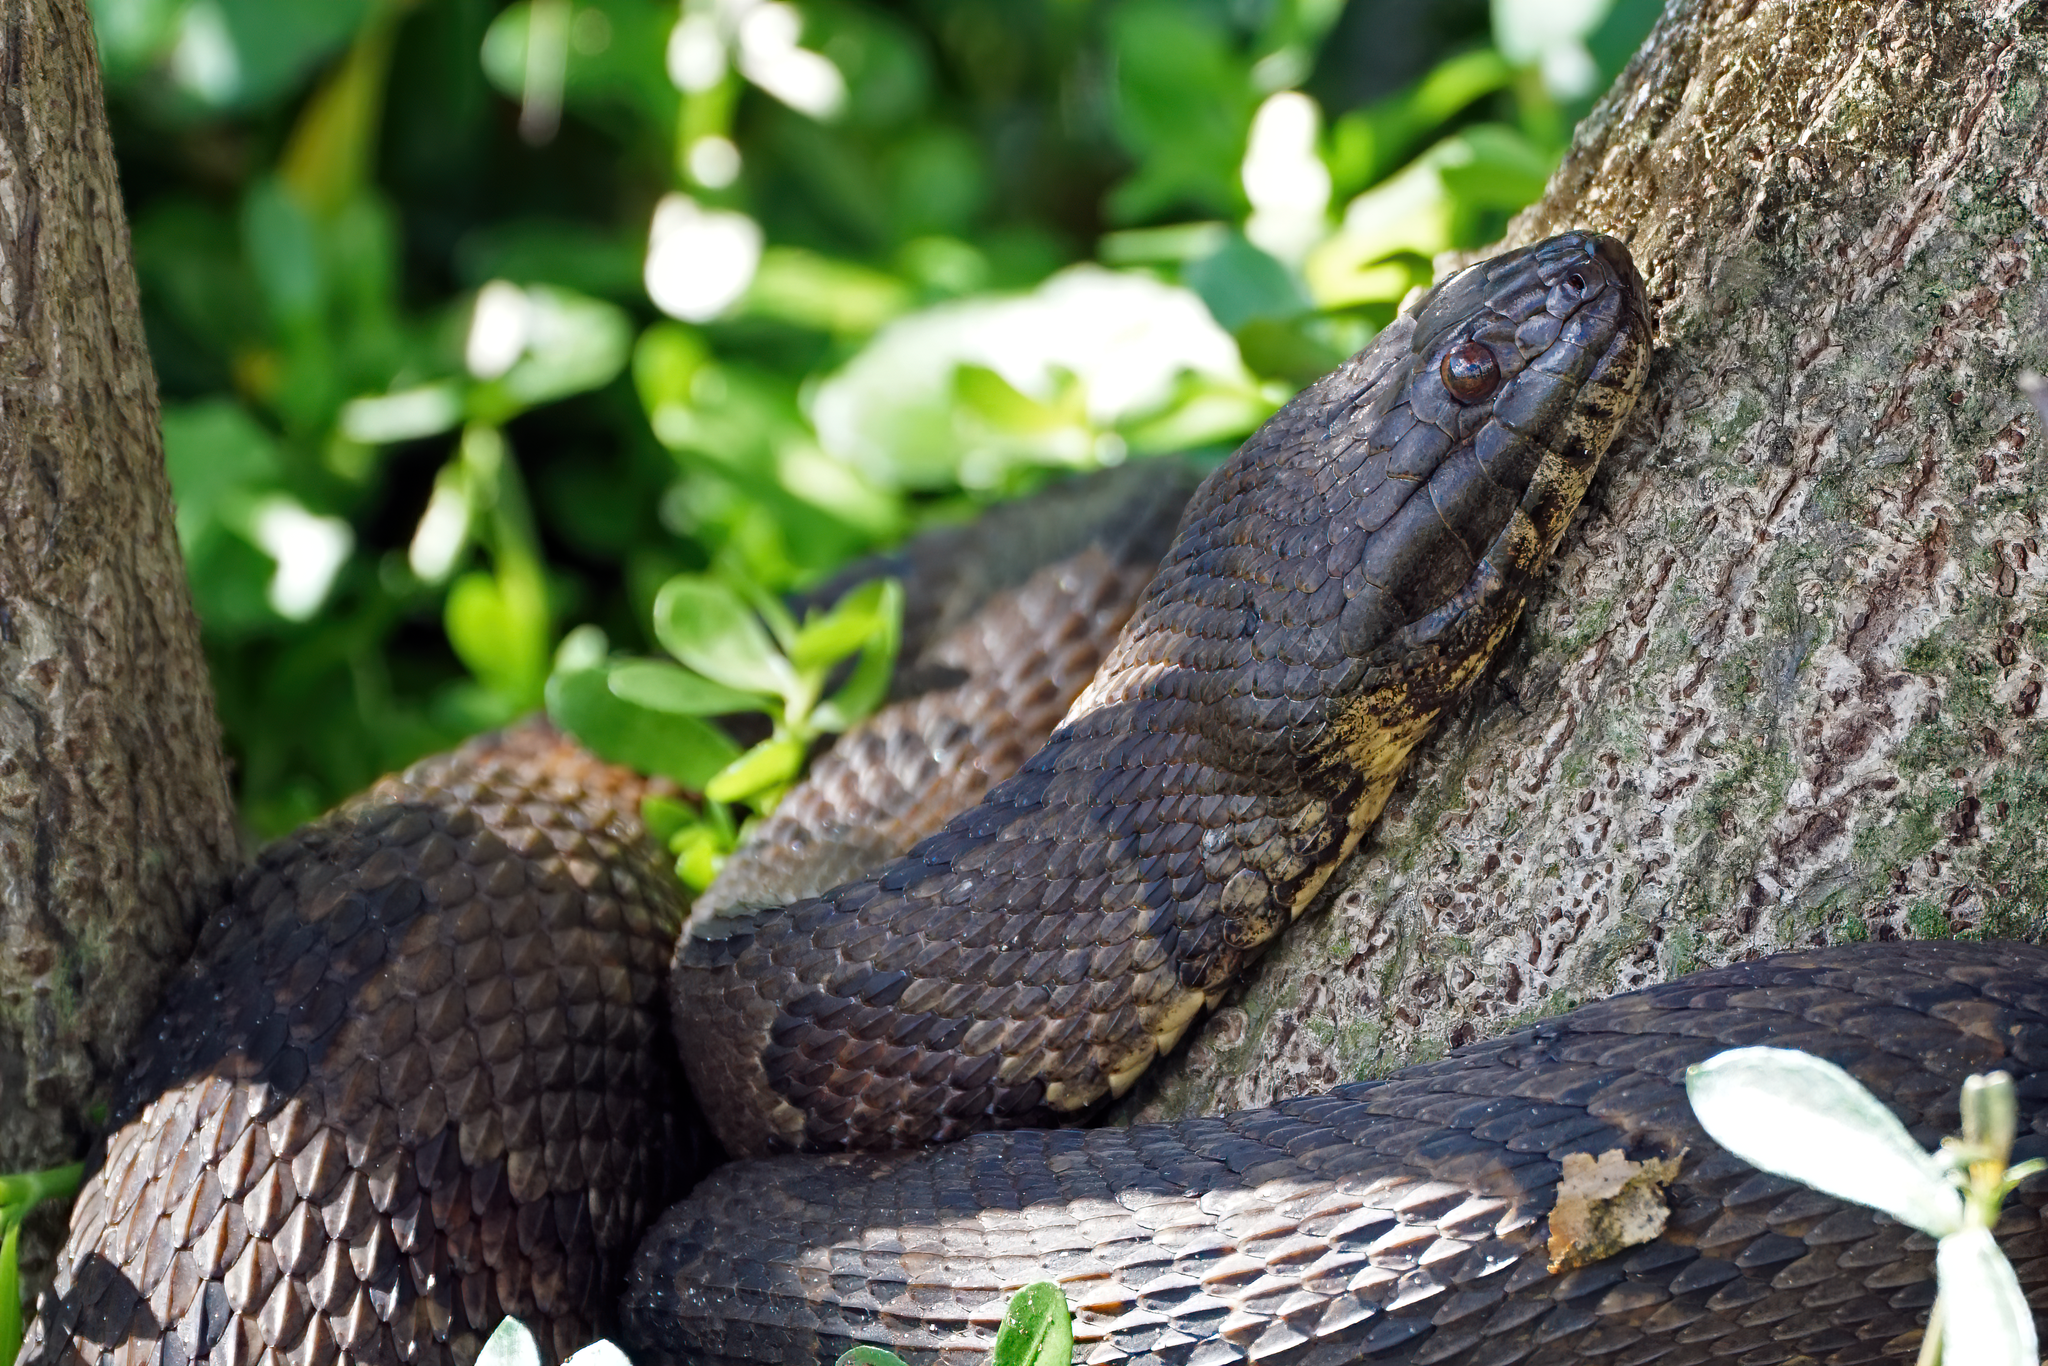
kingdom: Animalia
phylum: Chordata
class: Squamata
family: Colubridae
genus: Nerodia
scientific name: Nerodia taxispilota
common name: Brown water snake
